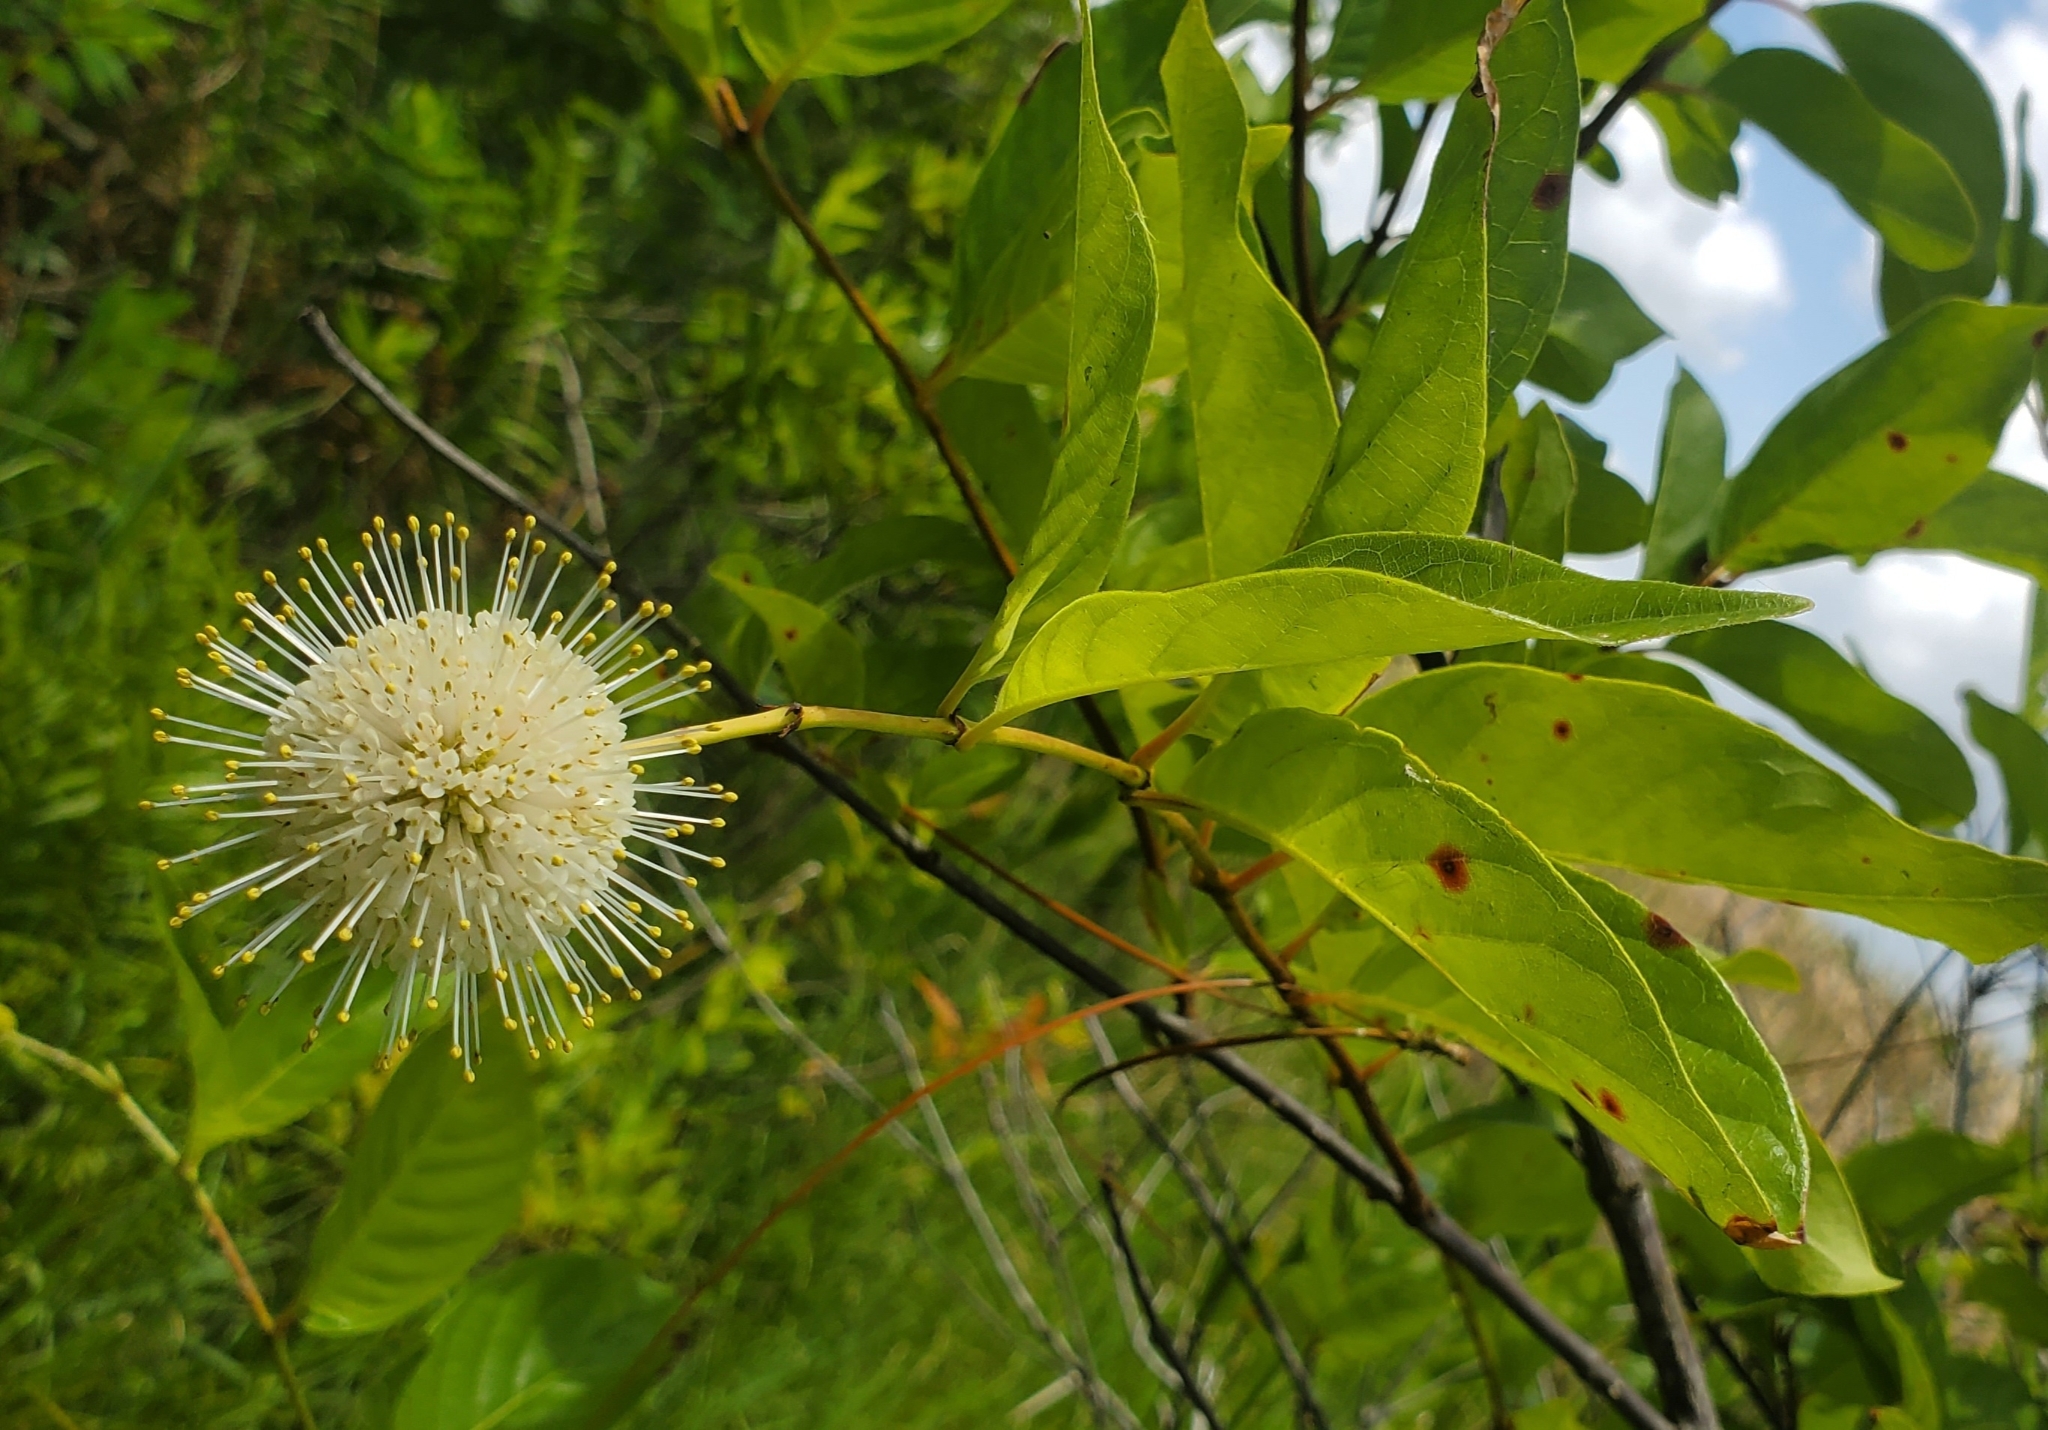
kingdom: Plantae
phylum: Tracheophyta
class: Magnoliopsida
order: Gentianales
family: Rubiaceae
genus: Cephalanthus
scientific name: Cephalanthus occidentalis
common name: Button-willow
